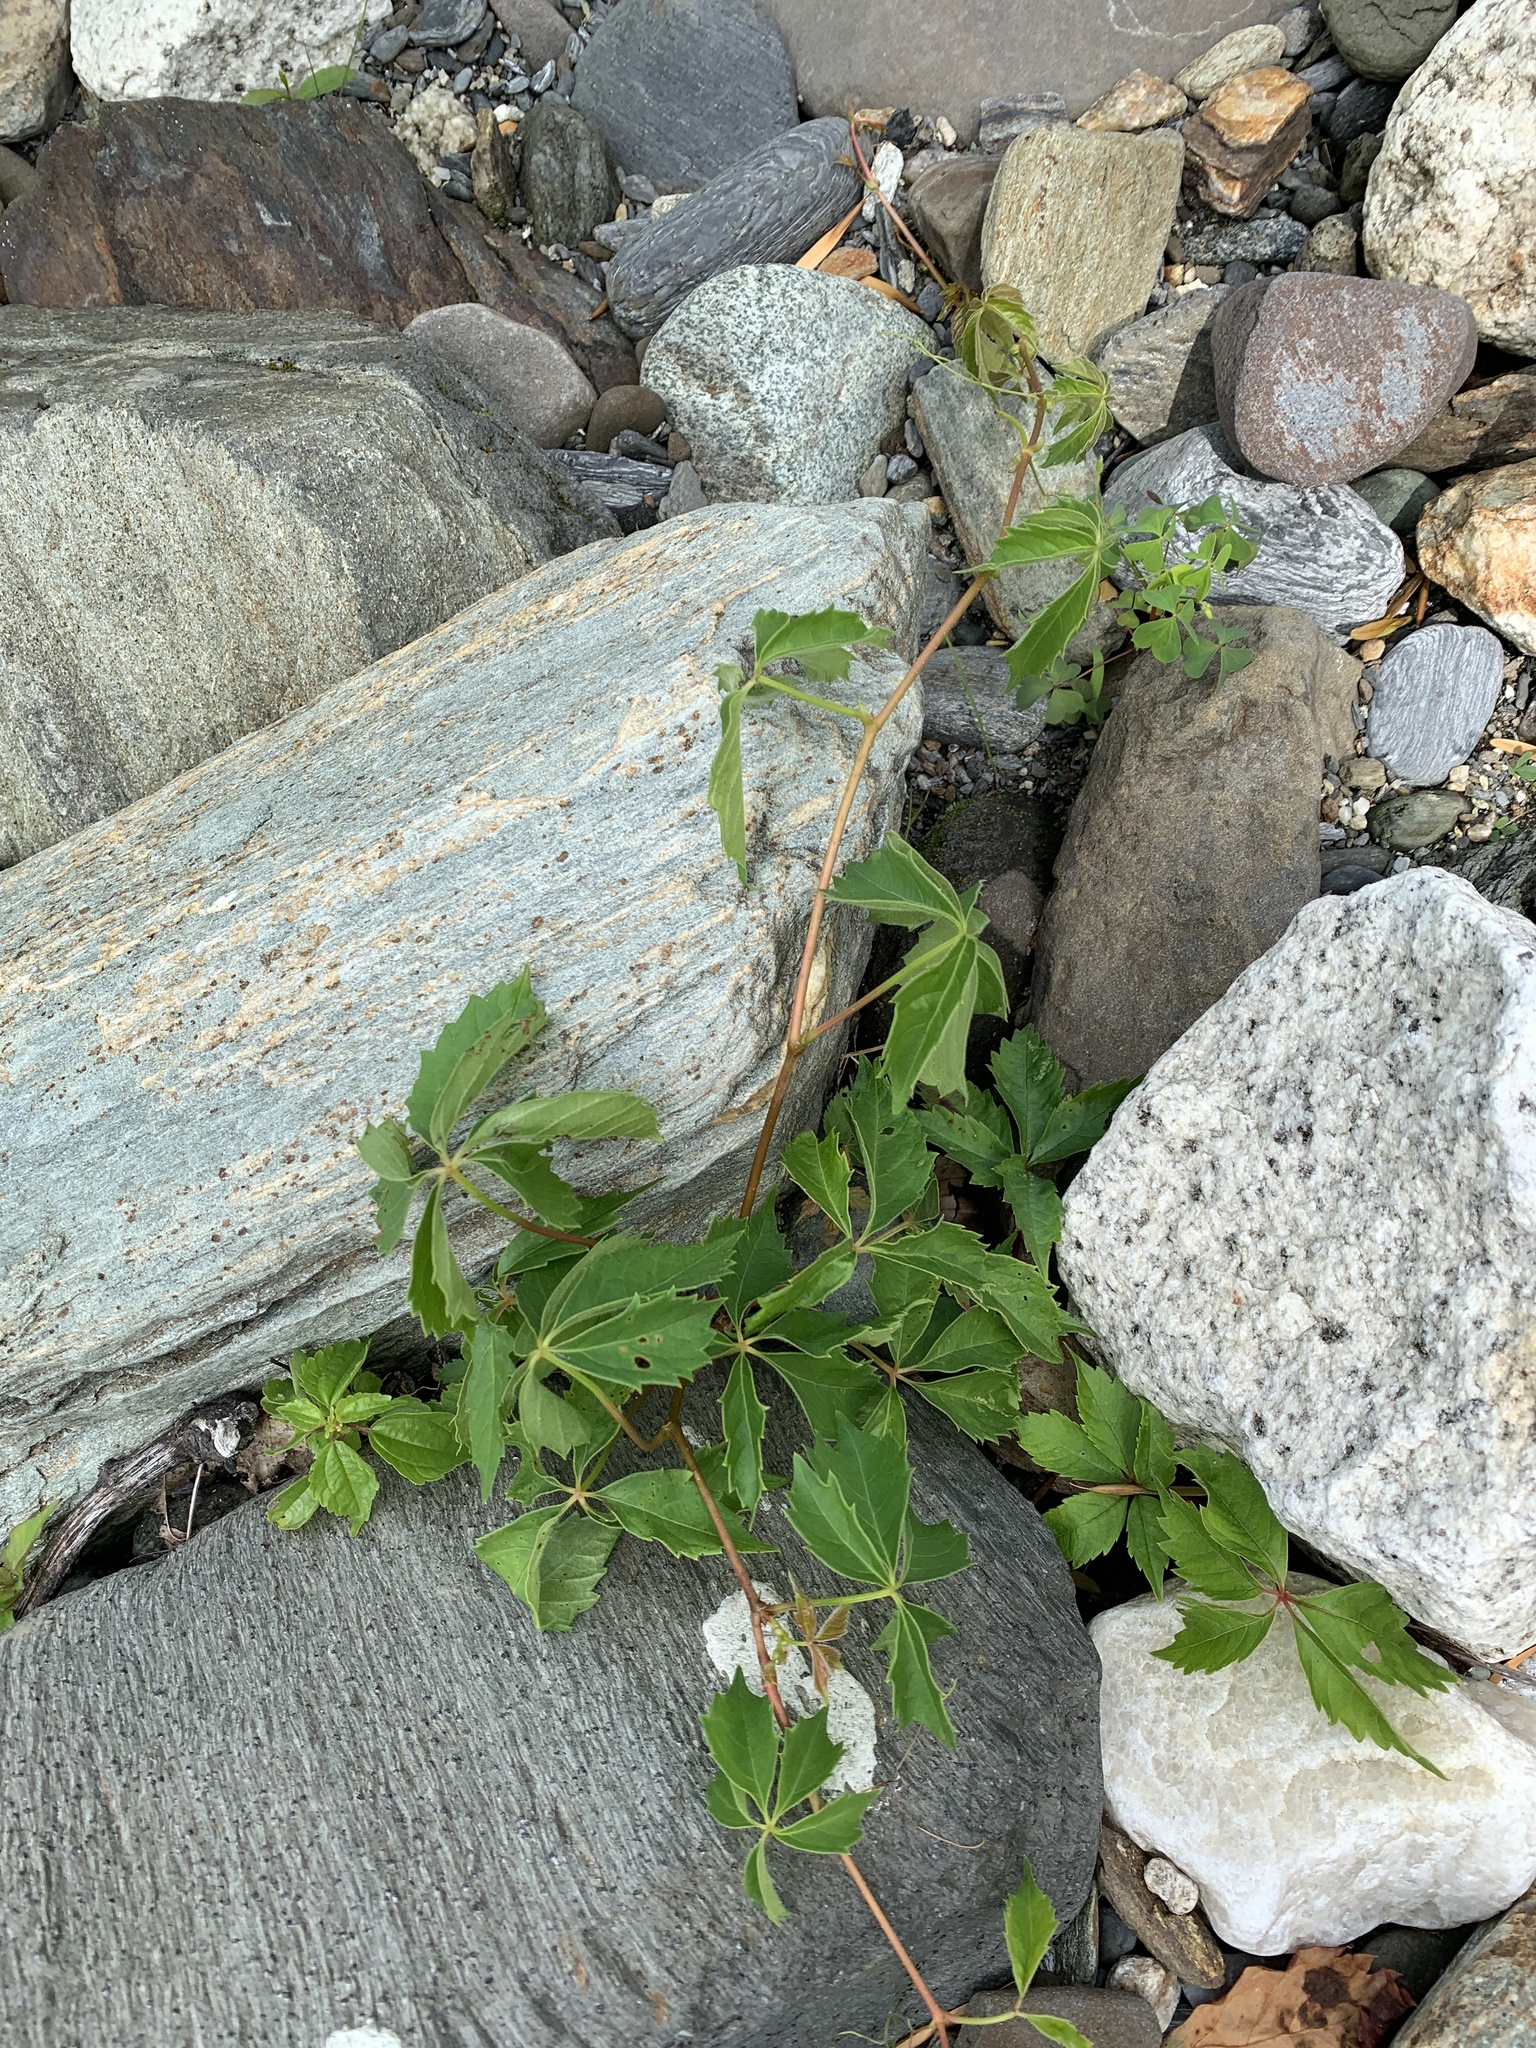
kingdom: Plantae
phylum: Tracheophyta
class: Magnoliopsida
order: Vitales
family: Vitaceae
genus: Parthenocissus
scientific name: Parthenocissus inserta
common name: False virginia-creeper
